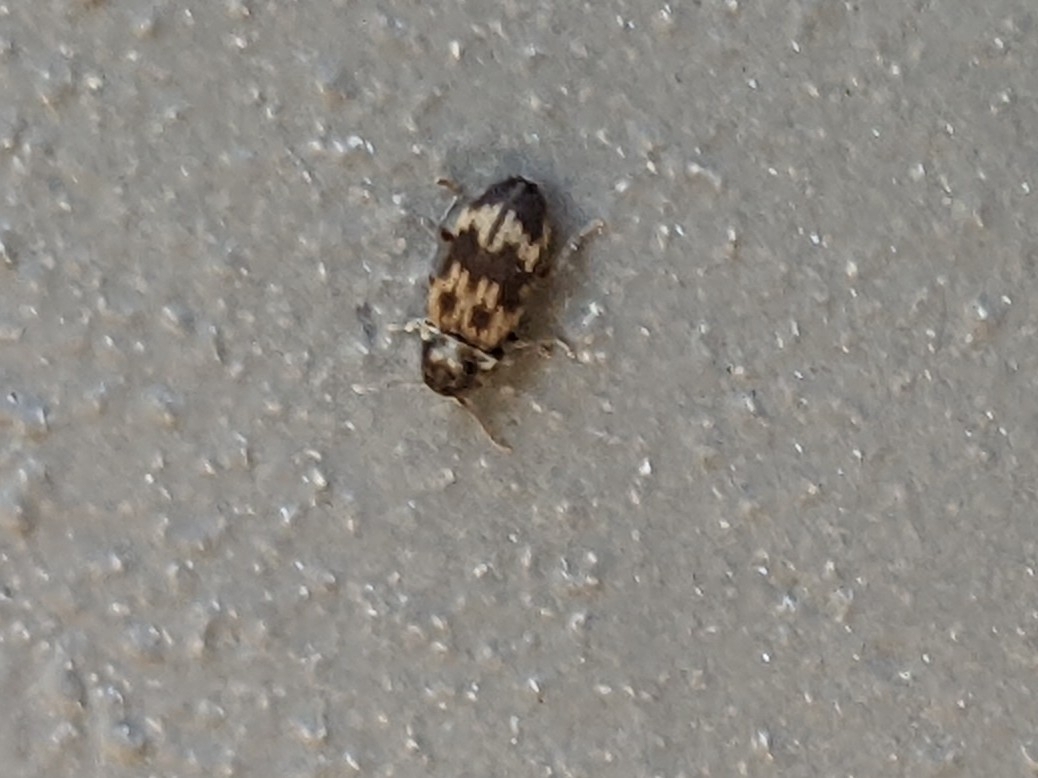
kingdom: Animalia
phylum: Arthropoda
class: Insecta
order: Coleoptera
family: Anobiidae
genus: Hadrobregmus
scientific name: Hadrobregmus notatus
